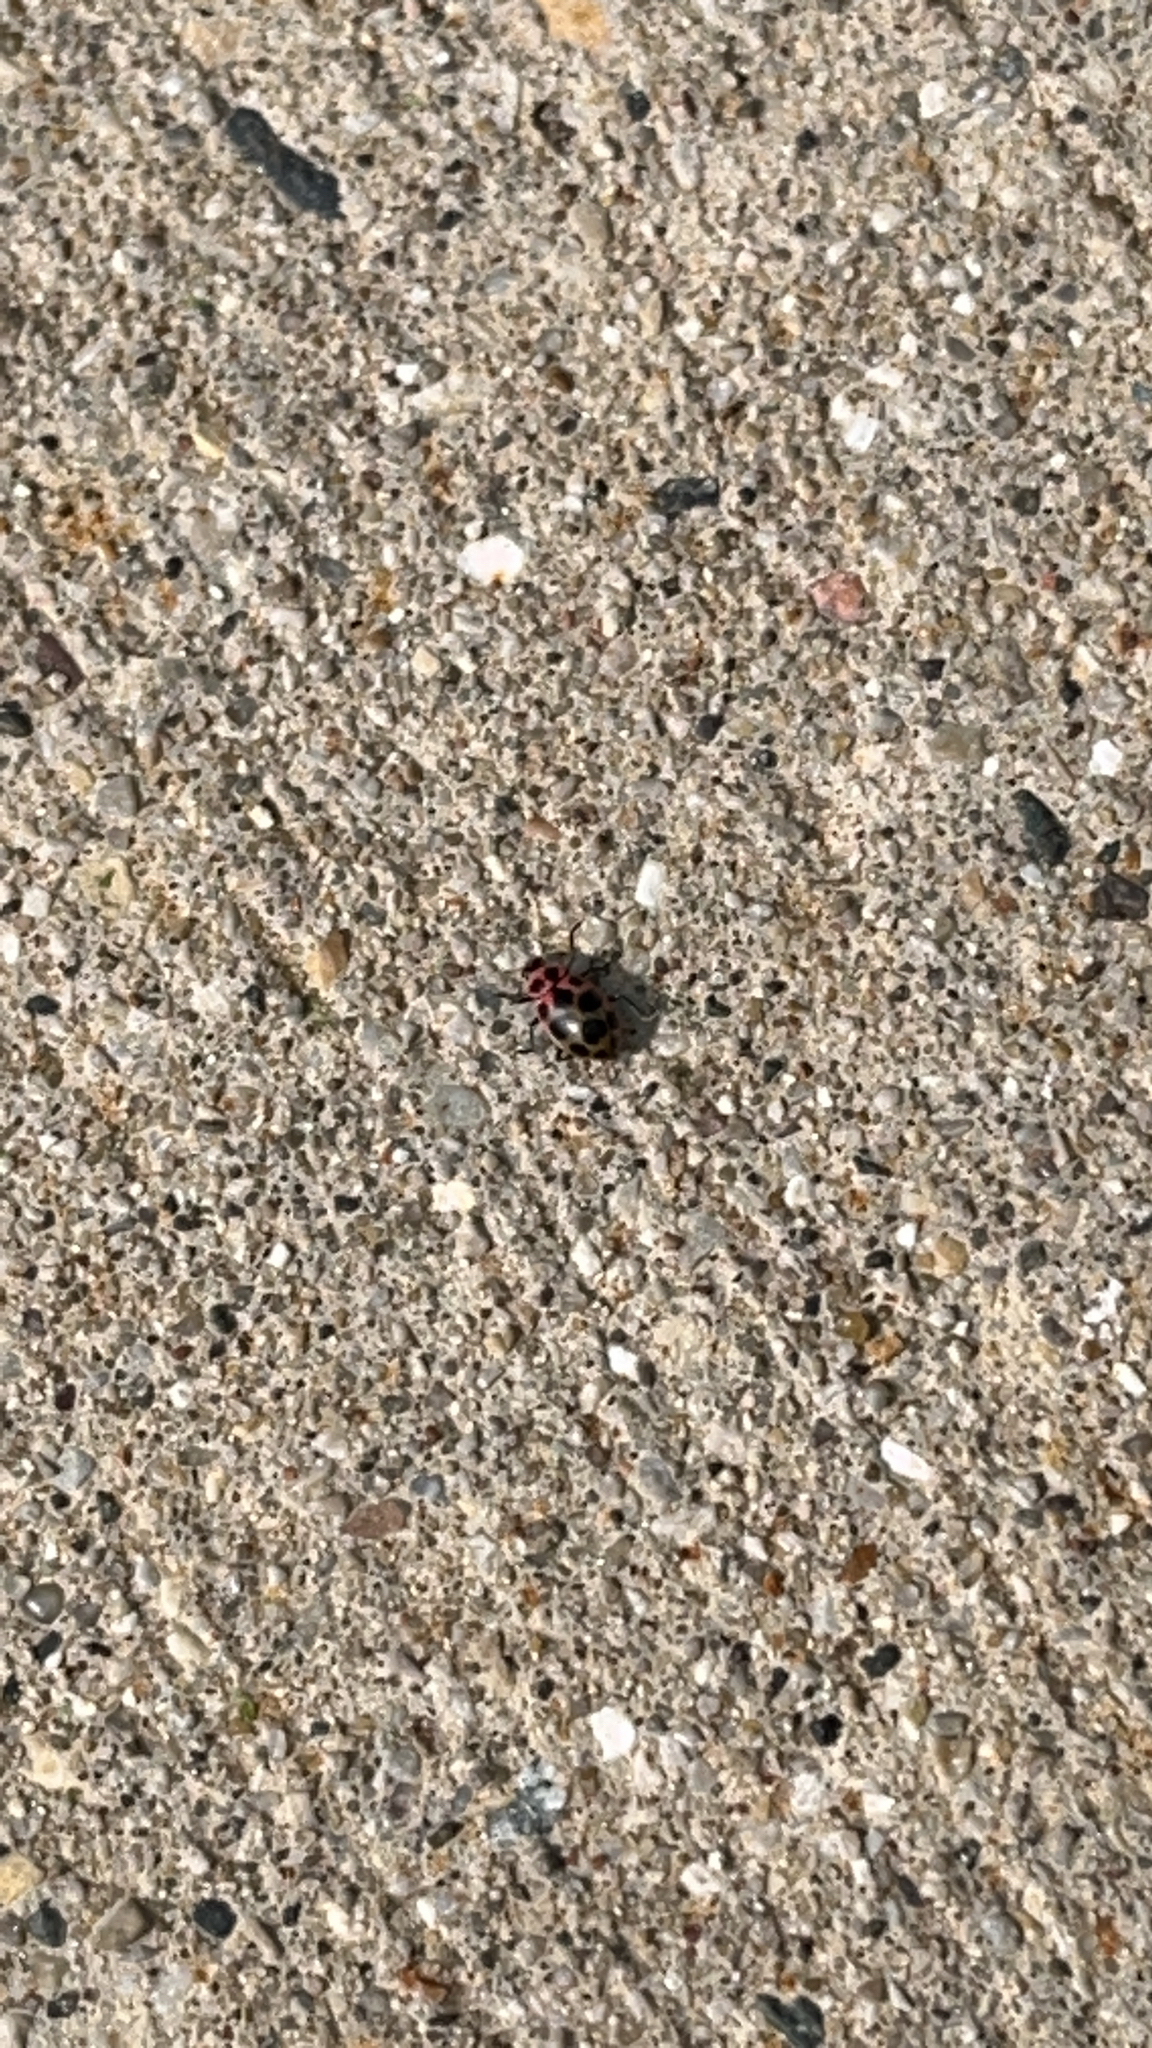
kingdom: Animalia
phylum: Arthropoda
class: Insecta
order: Coleoptera
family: Coccinellidae
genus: Coleomegilla
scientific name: Coleomegilla maculata
